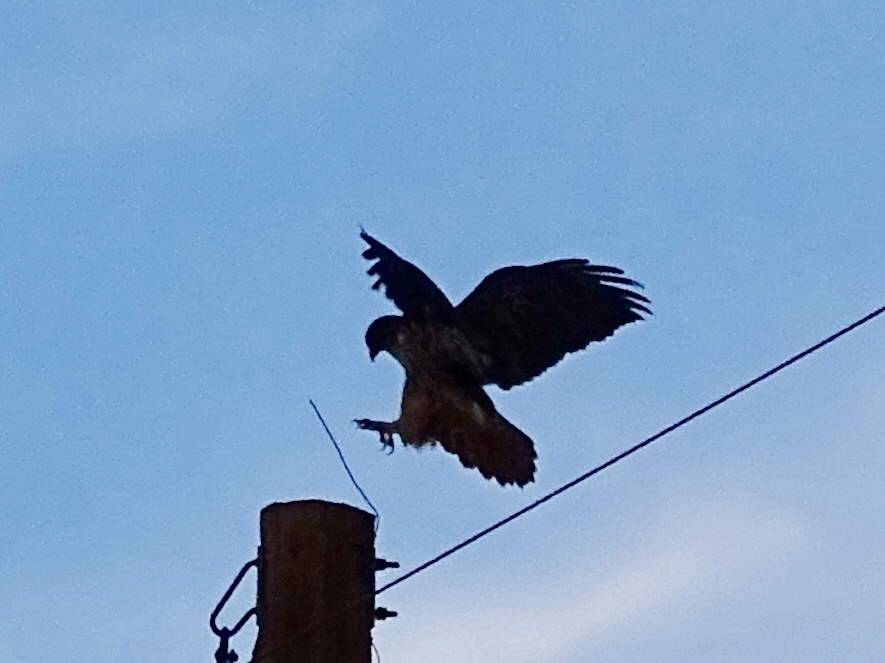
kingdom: Animalia
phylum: Chordata
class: Aves
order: Accipitriformes
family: Accipitridae
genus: Buteo
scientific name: Buteo jamaicensis
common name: Red-tailed hawk
